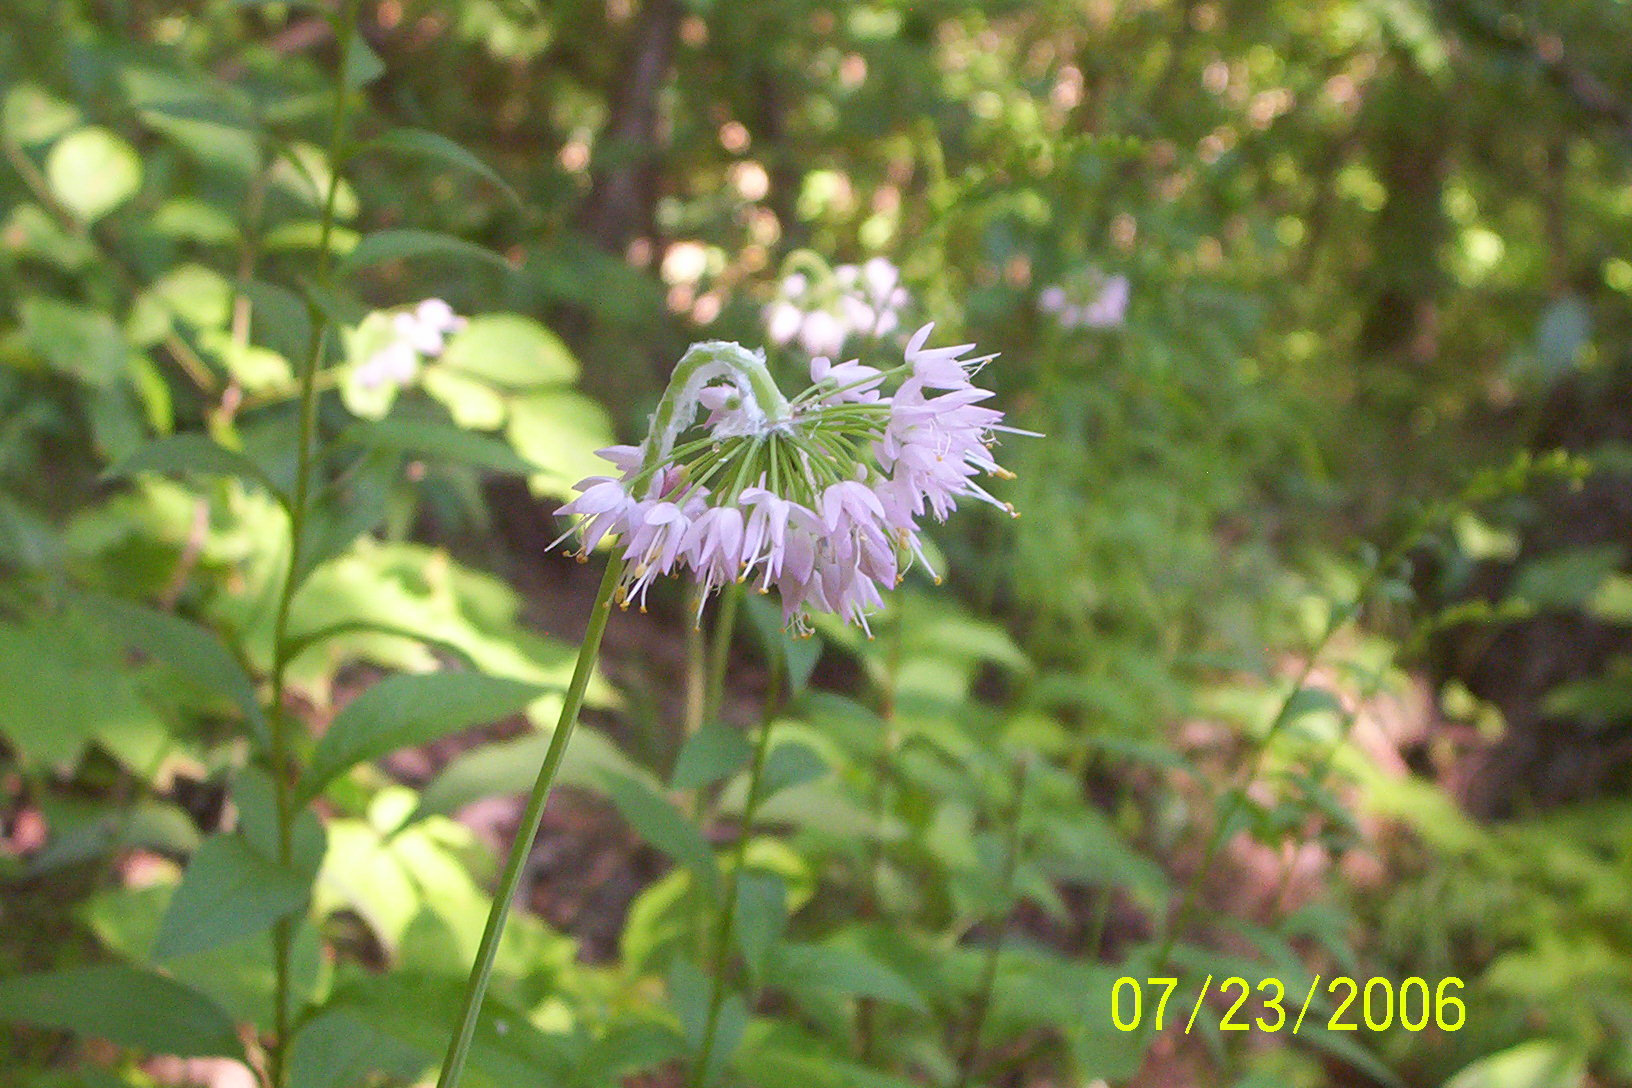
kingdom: Plantae
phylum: Tracheophyta
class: Liliopsida
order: Asparagales
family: Amaryllidaceae
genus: Allium
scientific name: Allium cernuum
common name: Nodding onion
